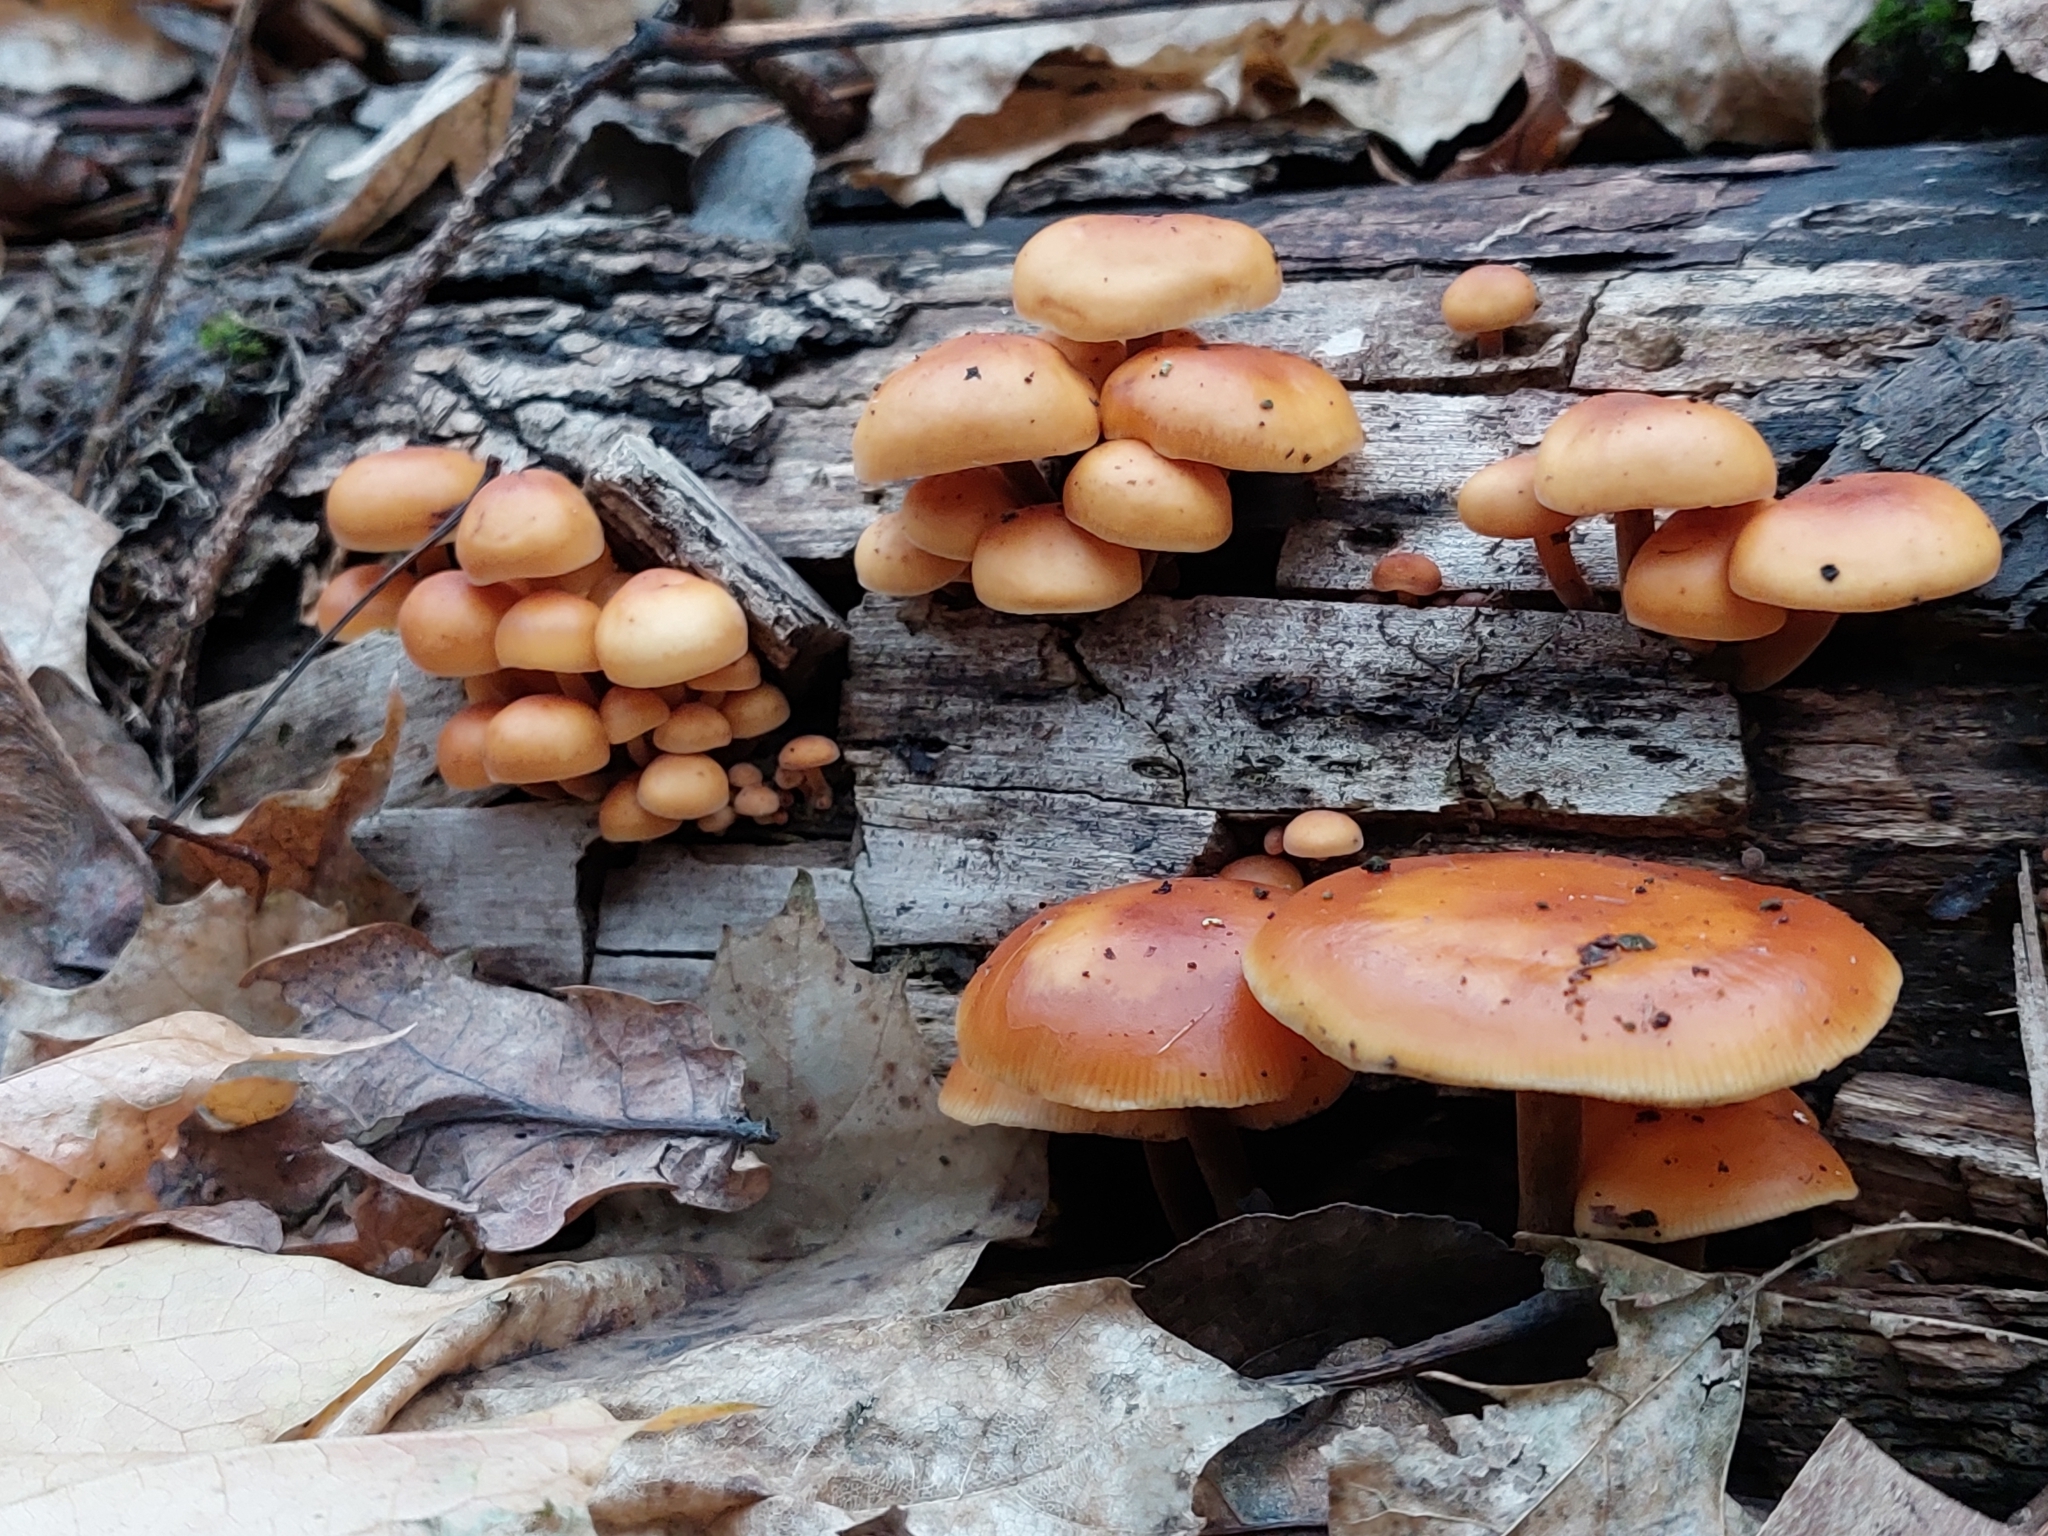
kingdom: Fungi
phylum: Basidiomycota
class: Agaricomycetes
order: Agaricales
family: Physalacriaceae
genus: Flammulina
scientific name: Flammulina
